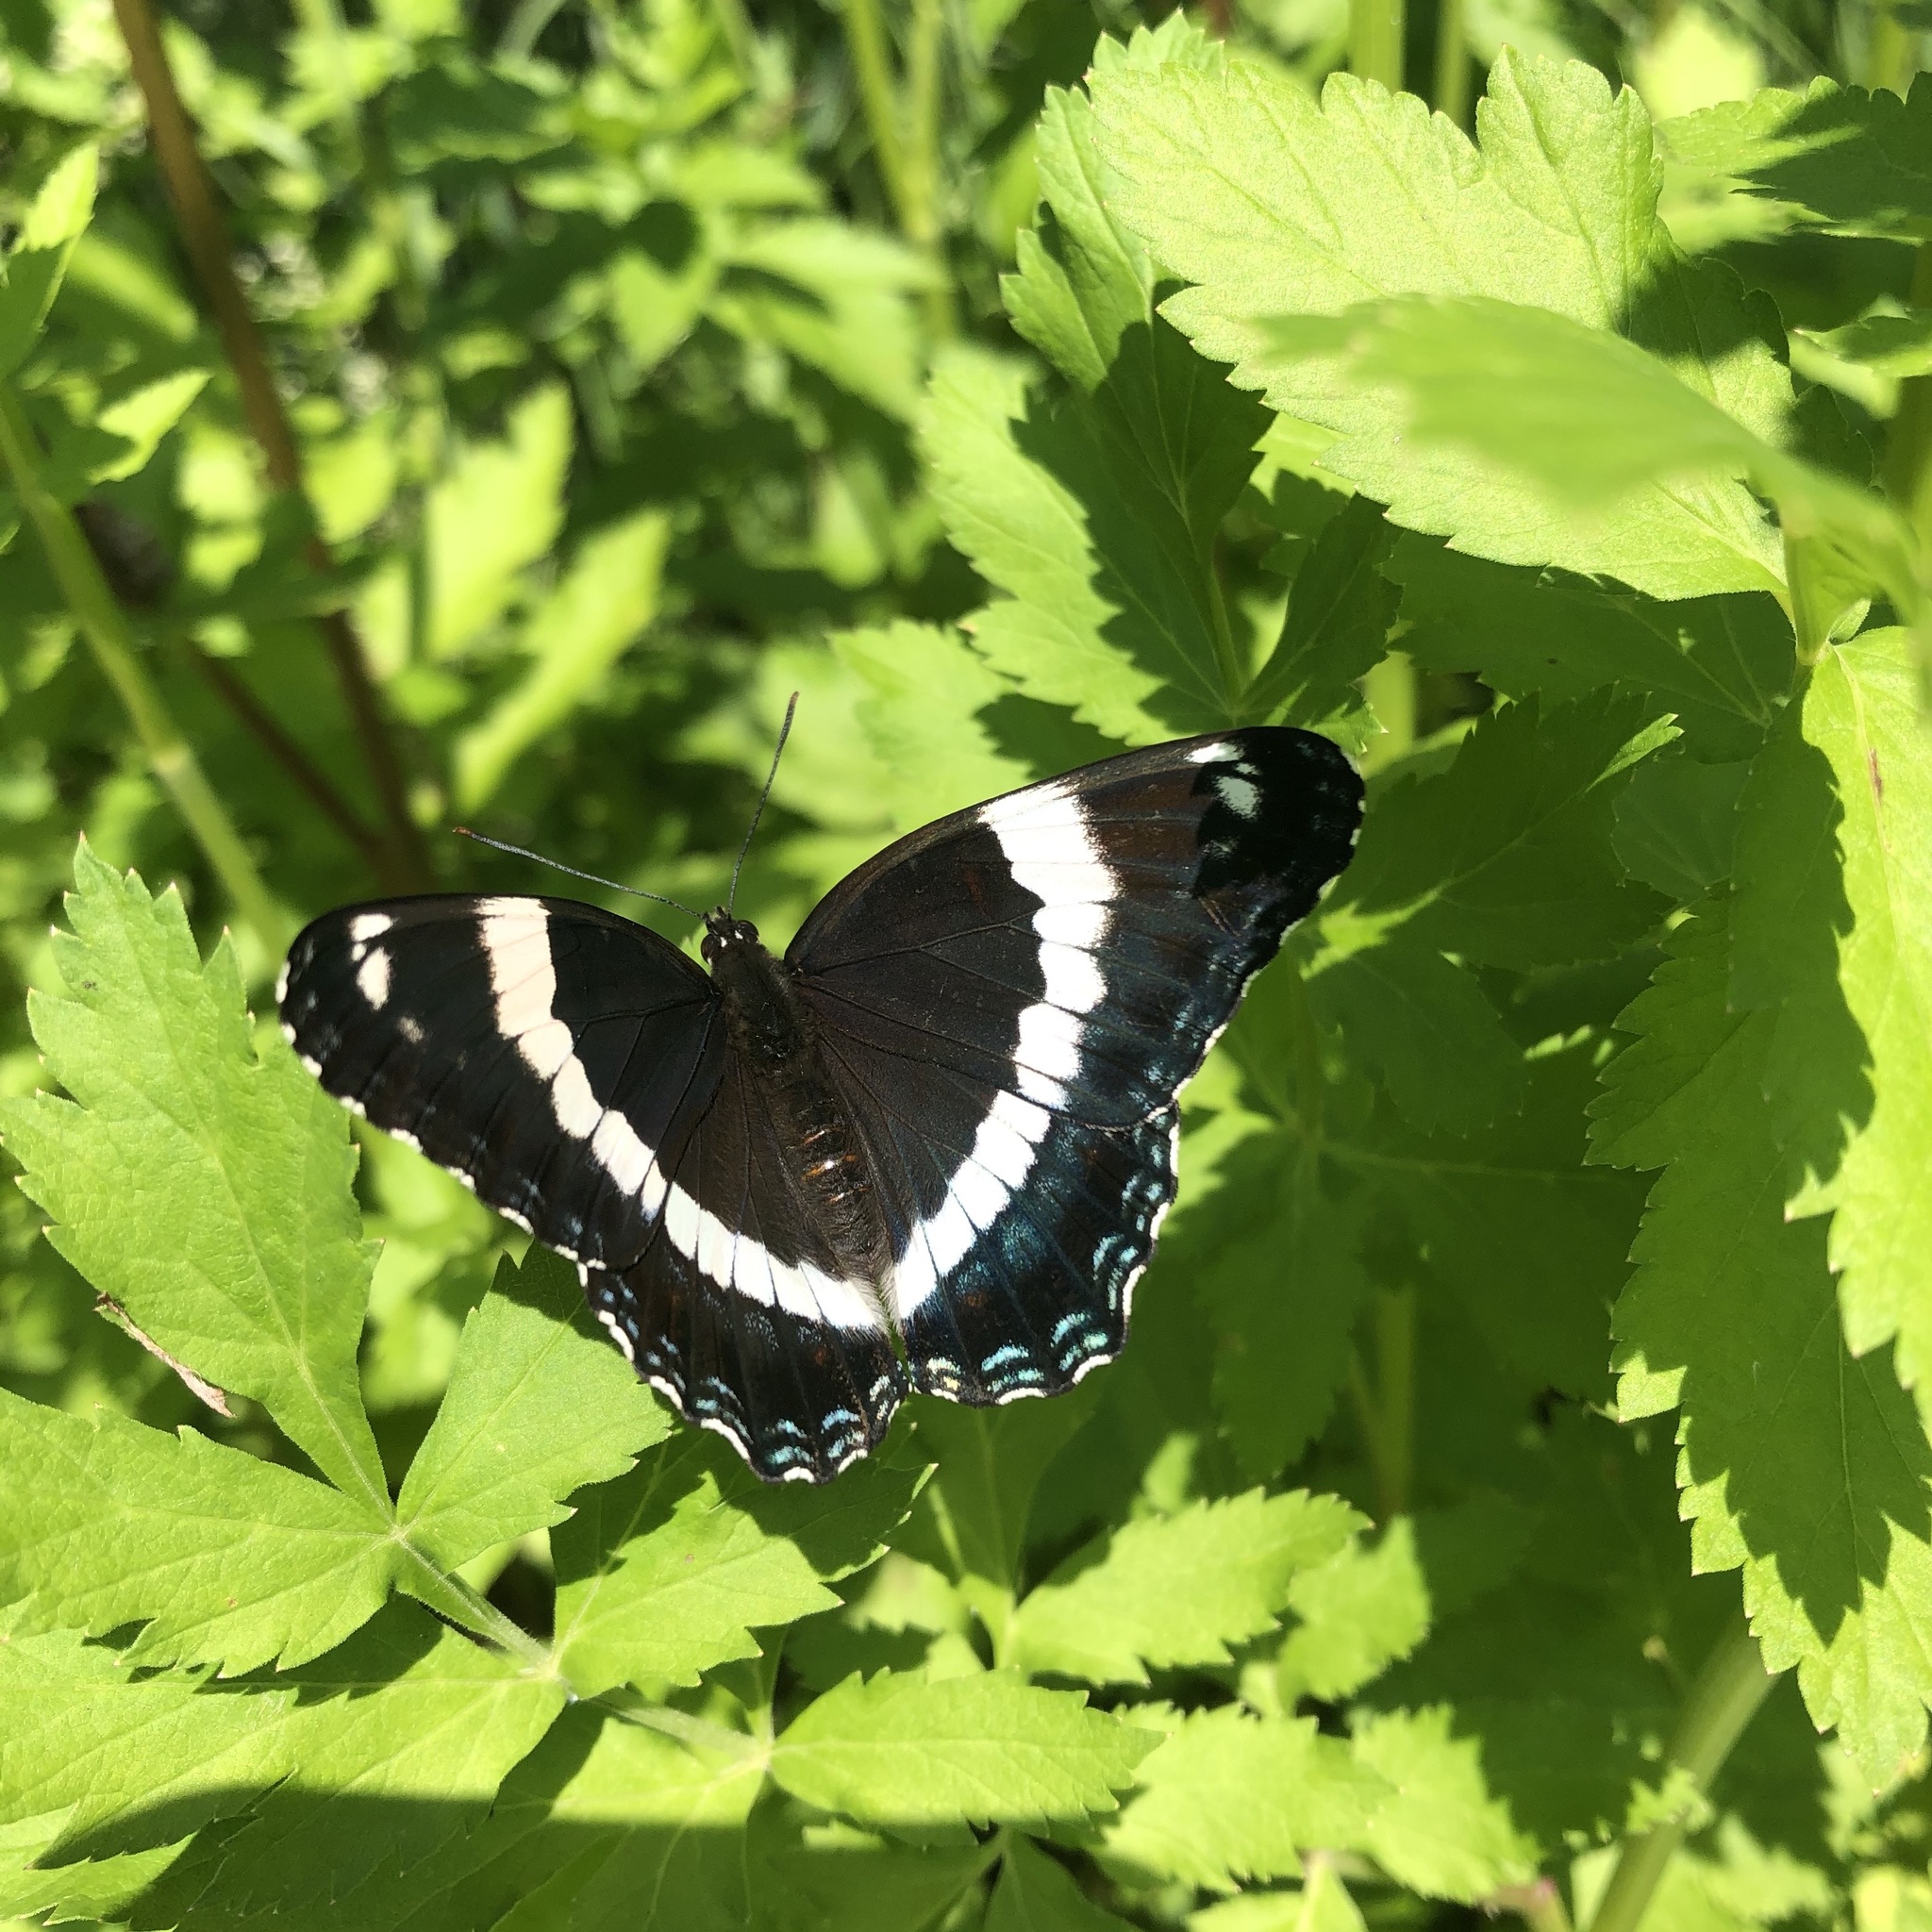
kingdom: Animalia
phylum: Arthropoda
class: Insecta
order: Lepidoptera
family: Nymphalidae
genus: Limenitis
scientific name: Limenitis arthemis
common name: Red-spotted admiral
